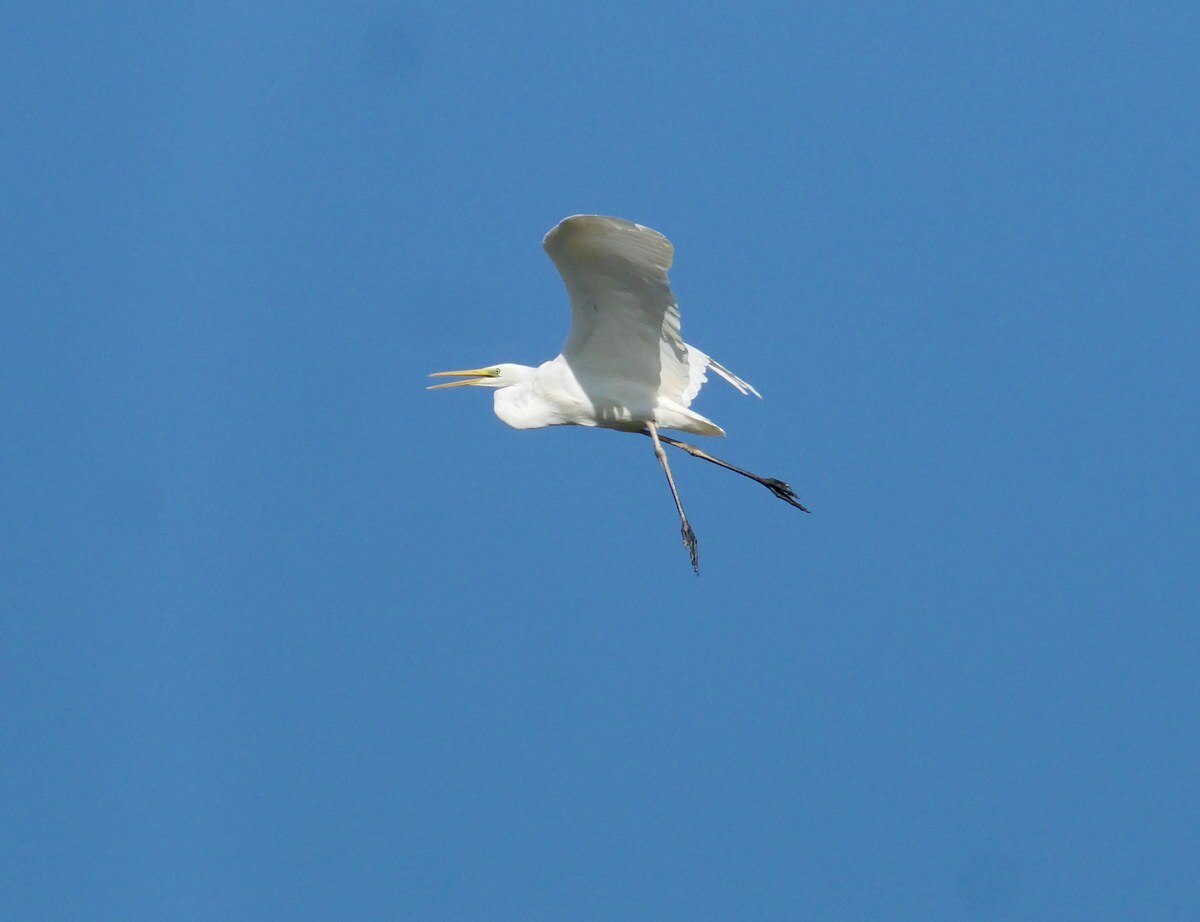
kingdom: Animalia
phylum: Chordata
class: Aves
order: Pelecaniformes
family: Ardeidae
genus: Ardea
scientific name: Ardea alba
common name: Great egret
